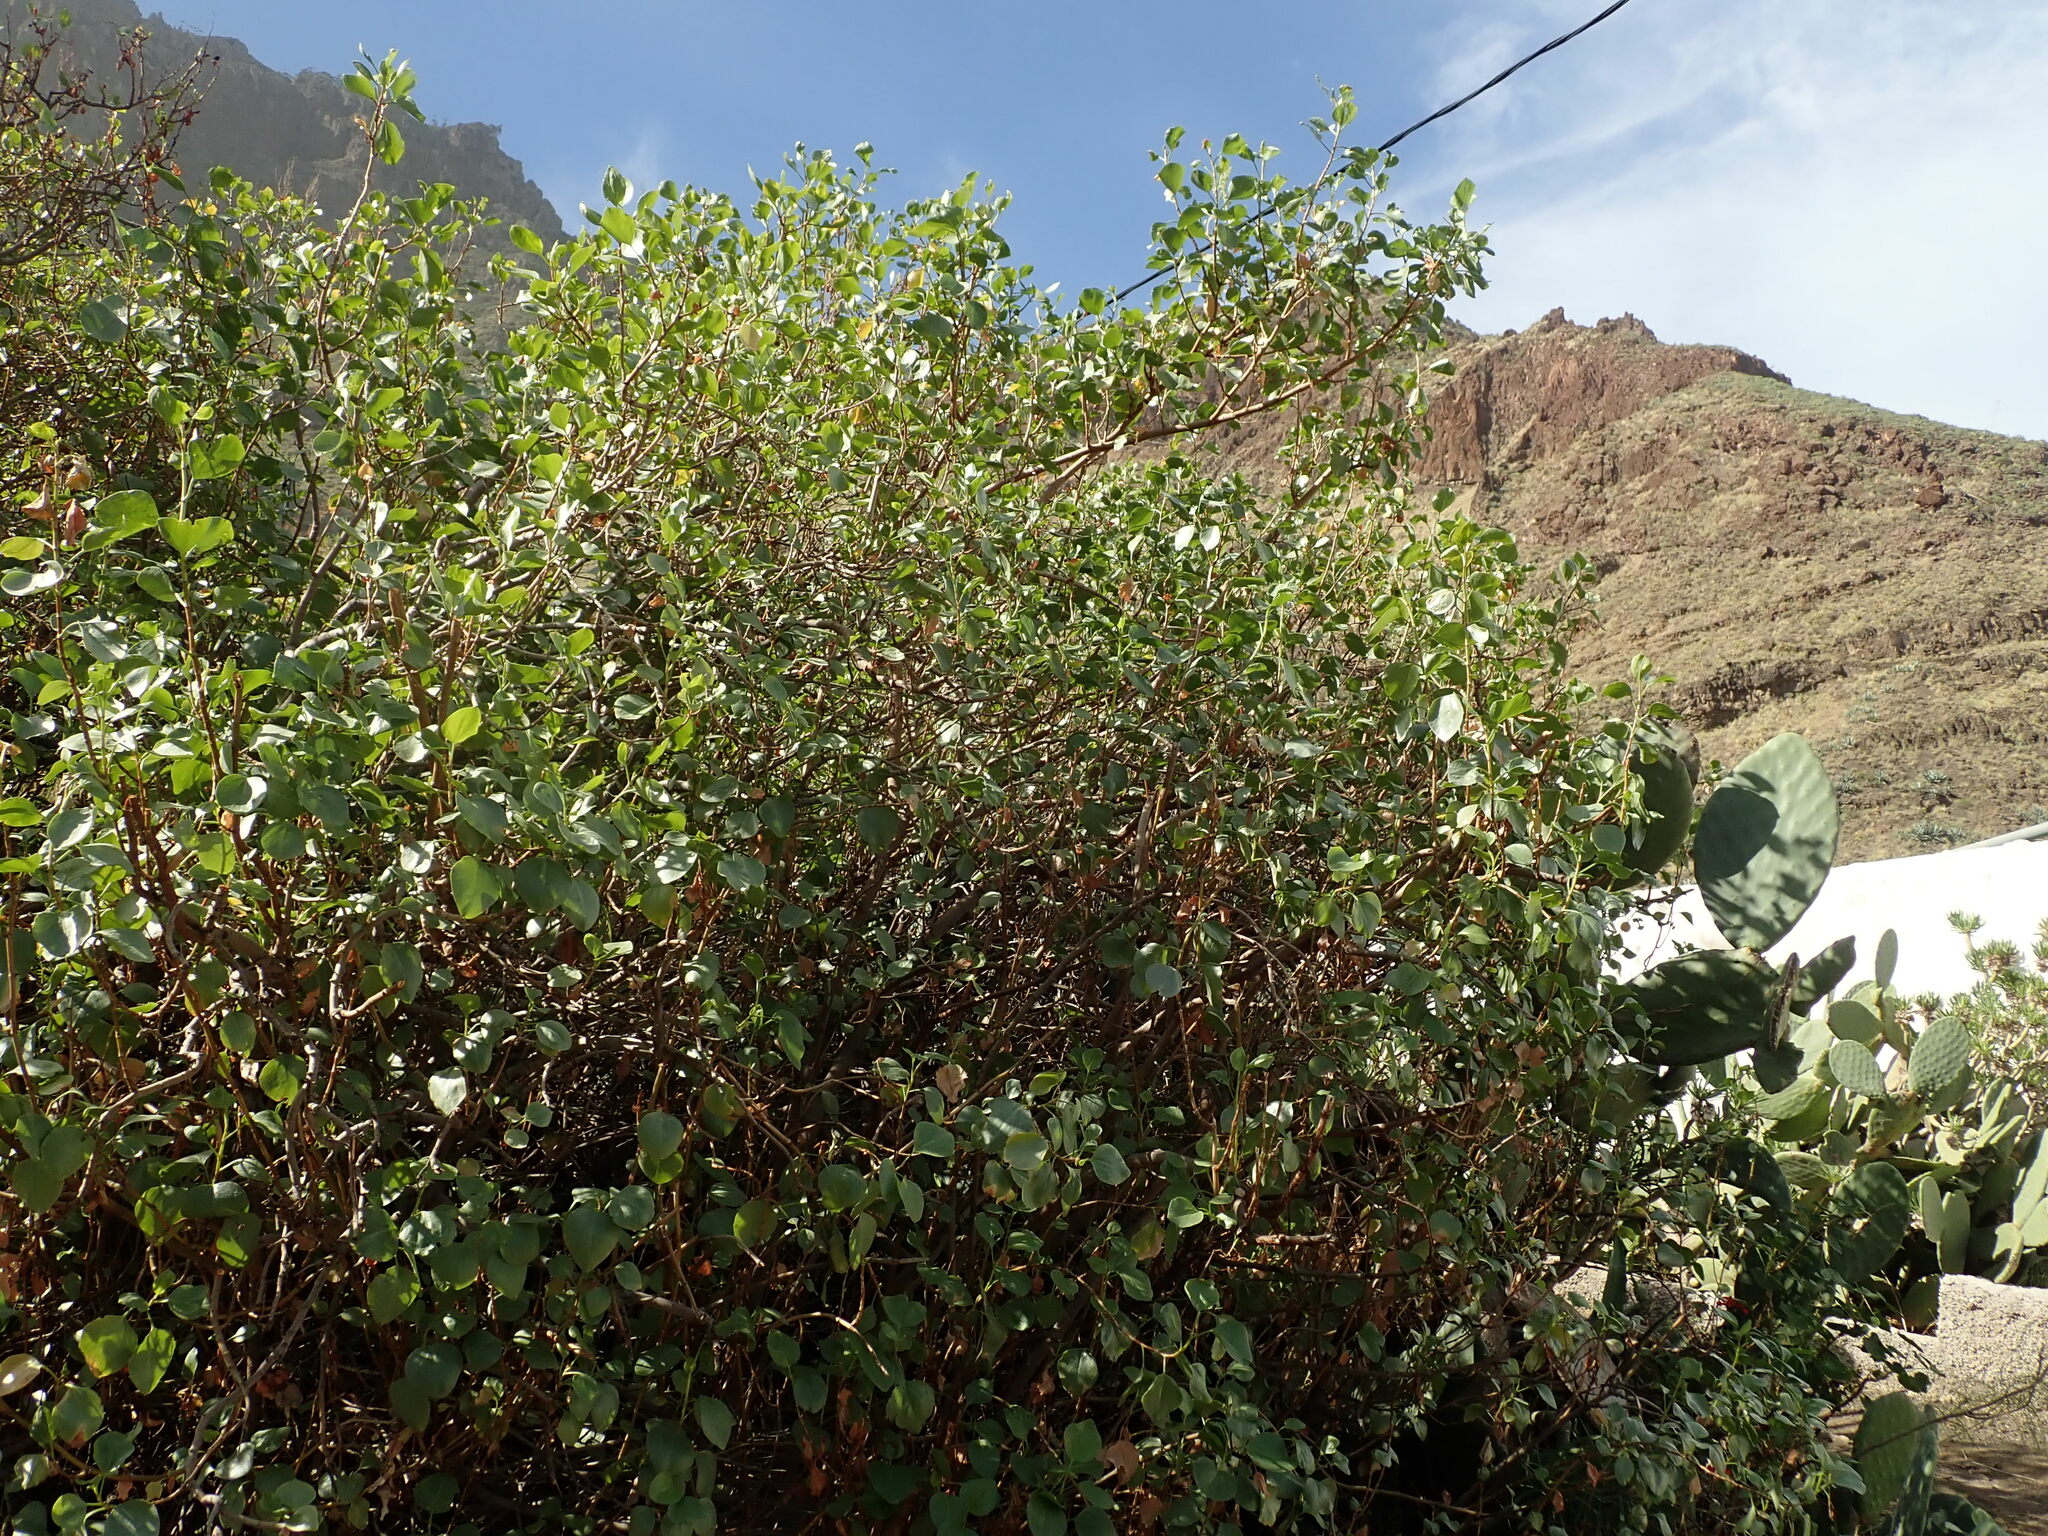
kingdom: Plantae
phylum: Tracheophyta
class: Magnoliopsida
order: Caryophyllales
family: Polygonaceae
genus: Rumex
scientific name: Rumex lunaria
